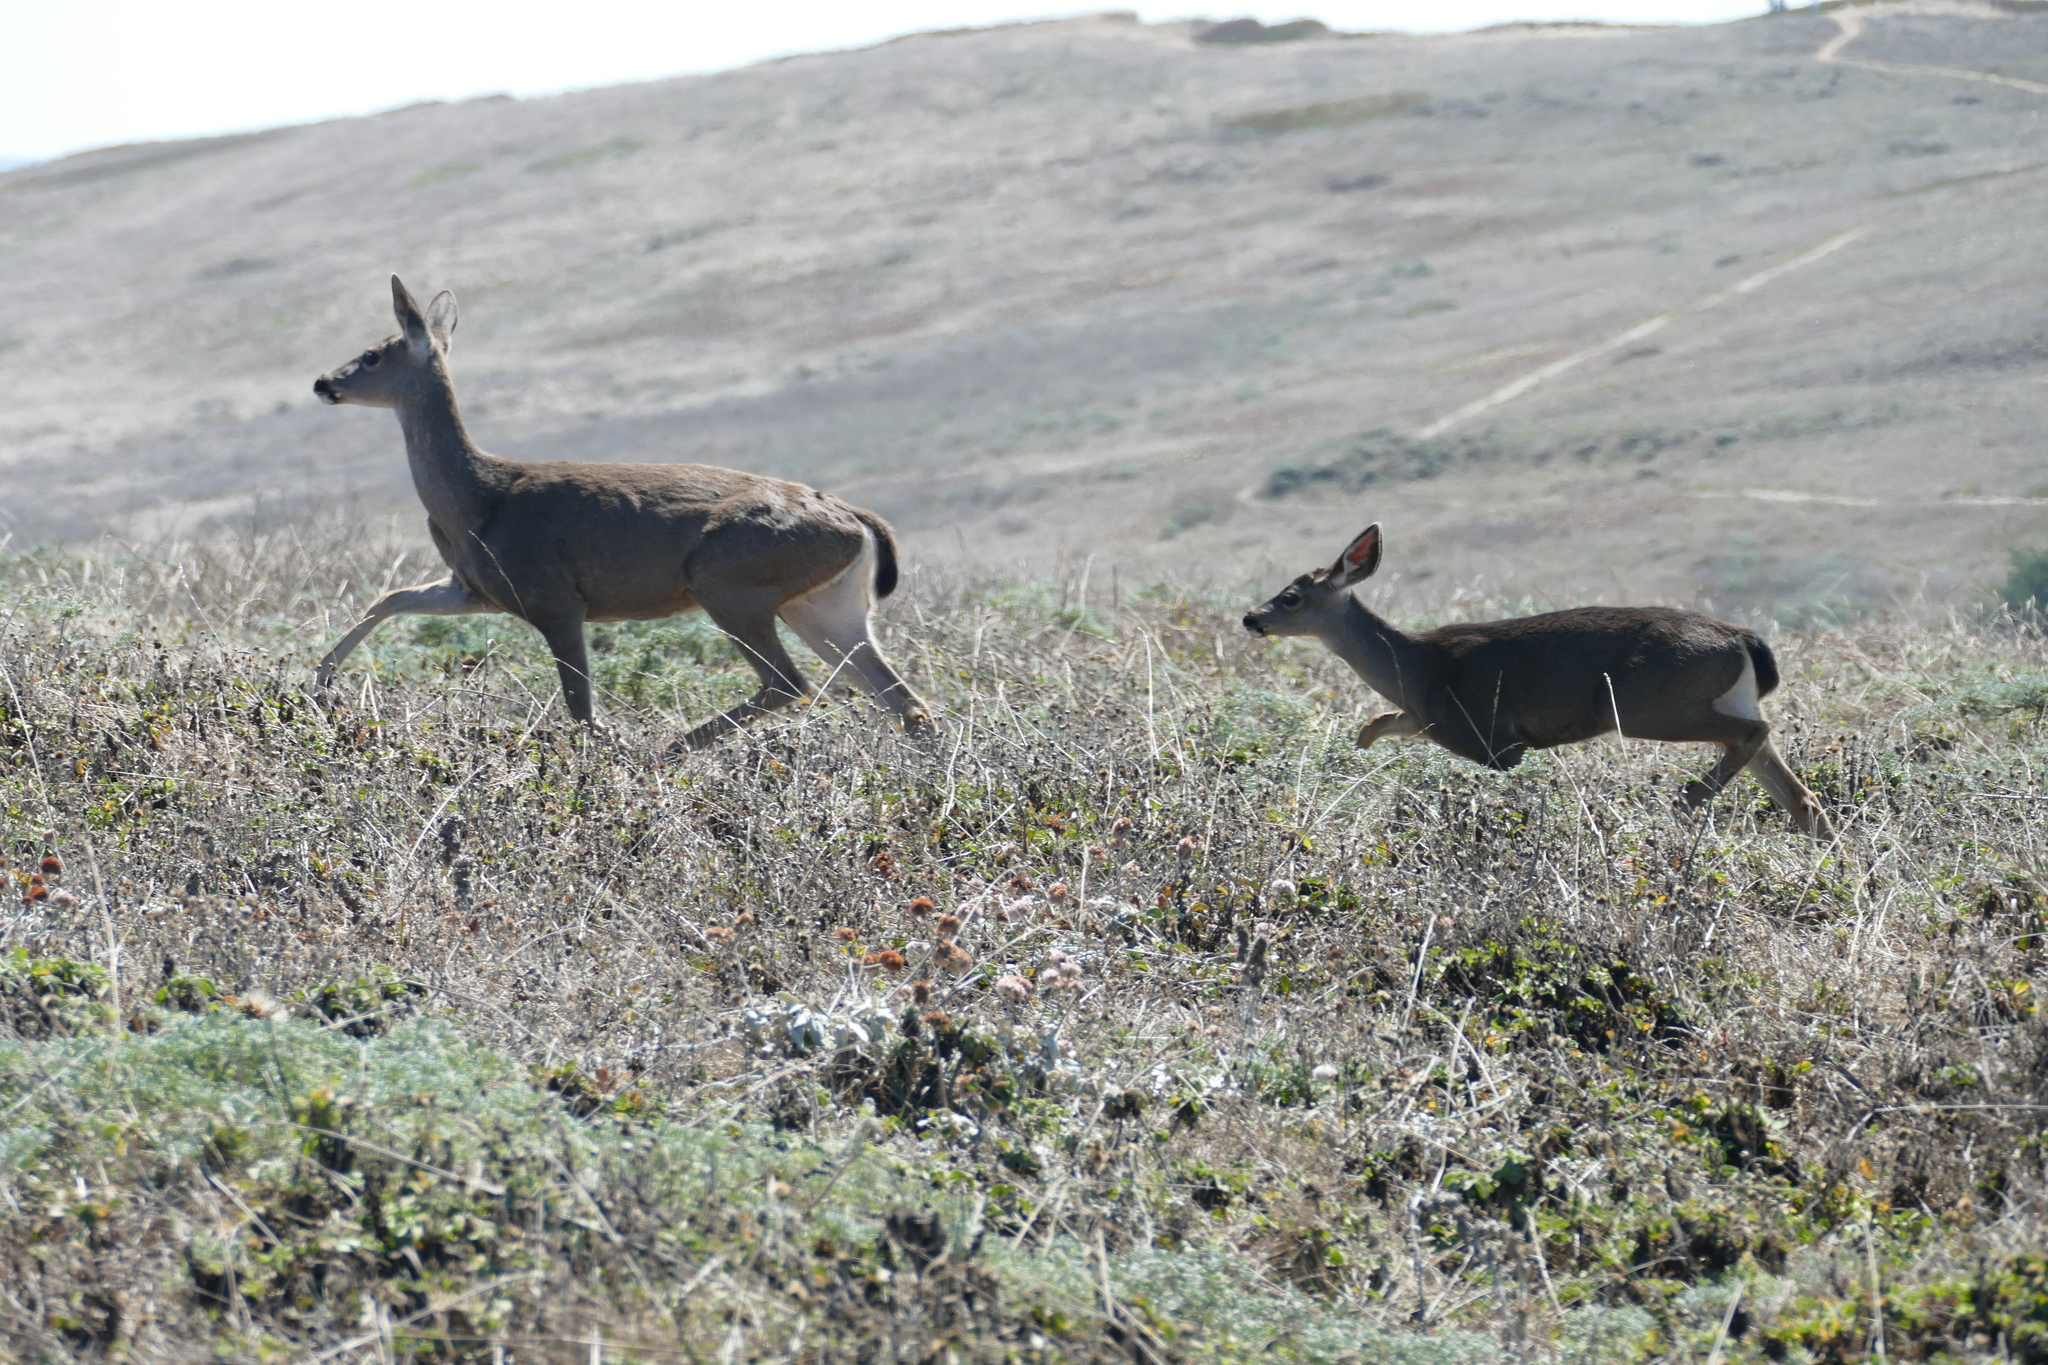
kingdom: Animalia
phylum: Chordata
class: Mammalia
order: Artiodactyla
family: Cervidae
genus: Odocoileus
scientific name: Odocoileus hemionus
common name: Mule deer
